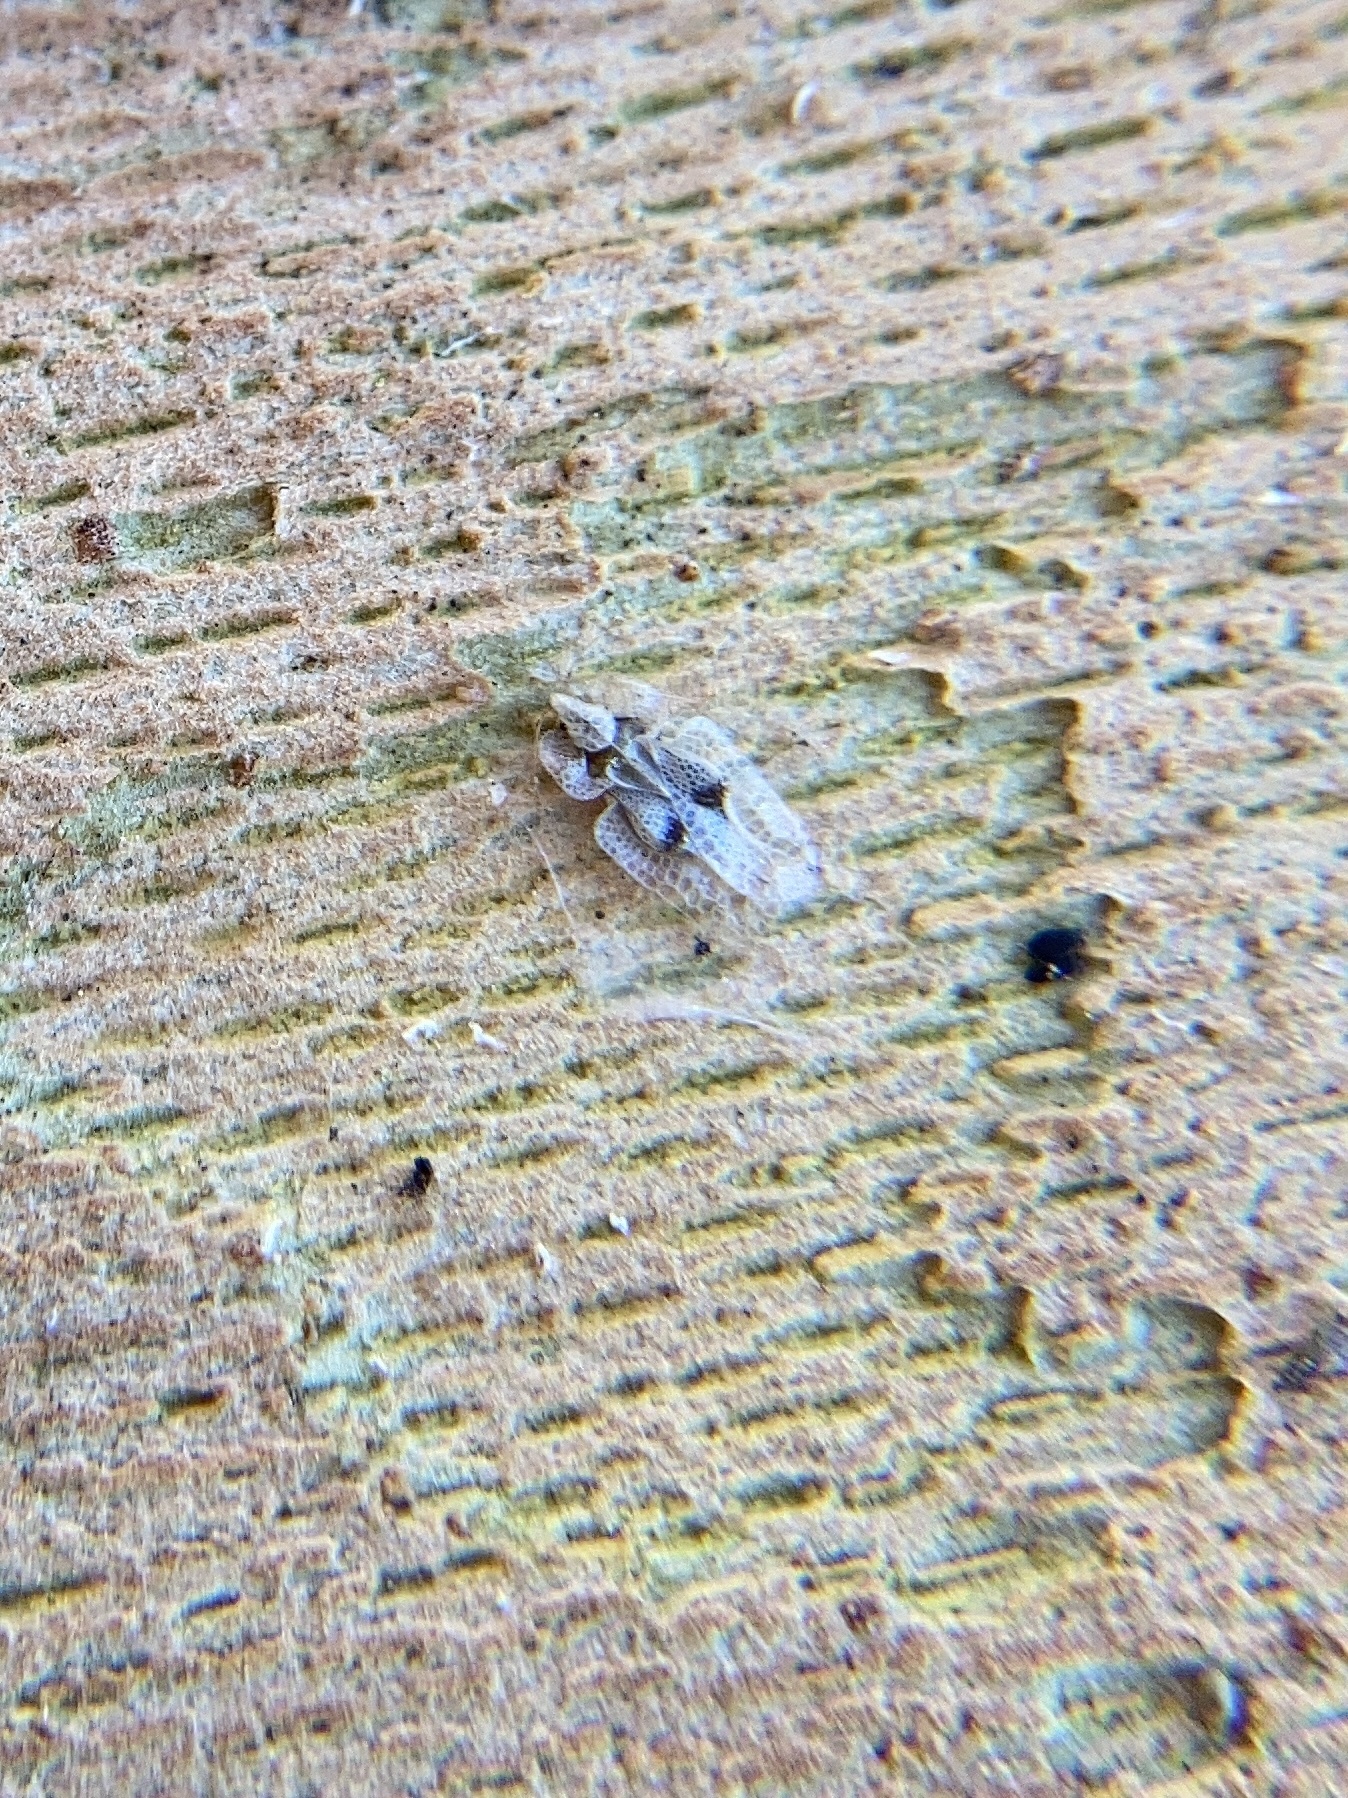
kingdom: Animalia
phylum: Arthropoda
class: Insecta
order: Hemiptera
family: Tingidae
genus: Corythucha
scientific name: Corythucha ciliata
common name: Sycamore lace bug
